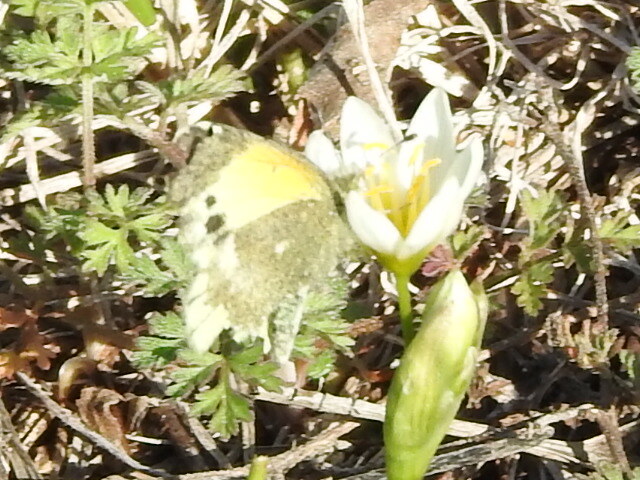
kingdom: Animalia
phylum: Arthropoda
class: Insecta
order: Lepidoptera
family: Pieridae
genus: Nathalis
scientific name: Nathalis iole
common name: Dainty sulphur
